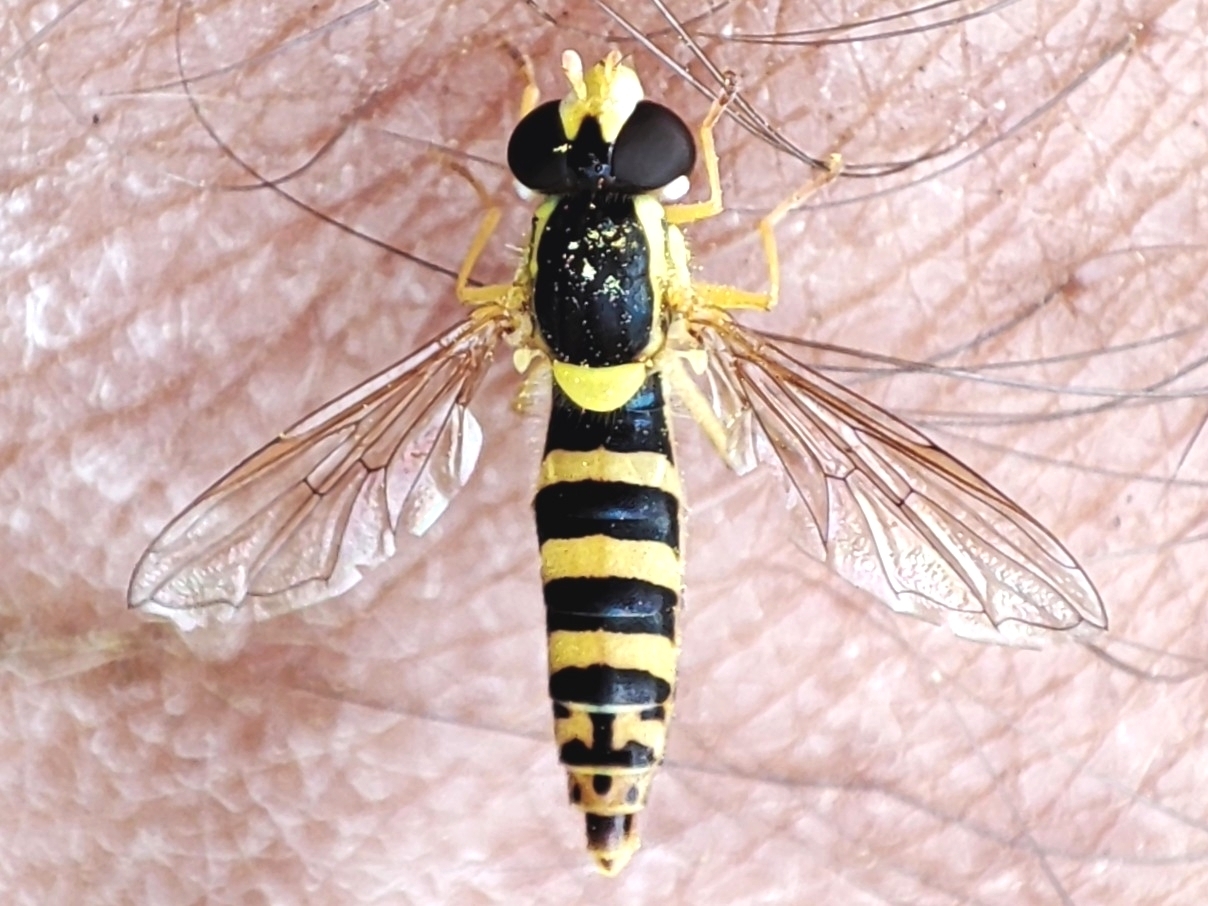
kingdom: Animalia
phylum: Arthropoda
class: Insecta
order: Diptera
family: Syrphidae
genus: Sphaerophoria
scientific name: Sphaerophoria scripta
